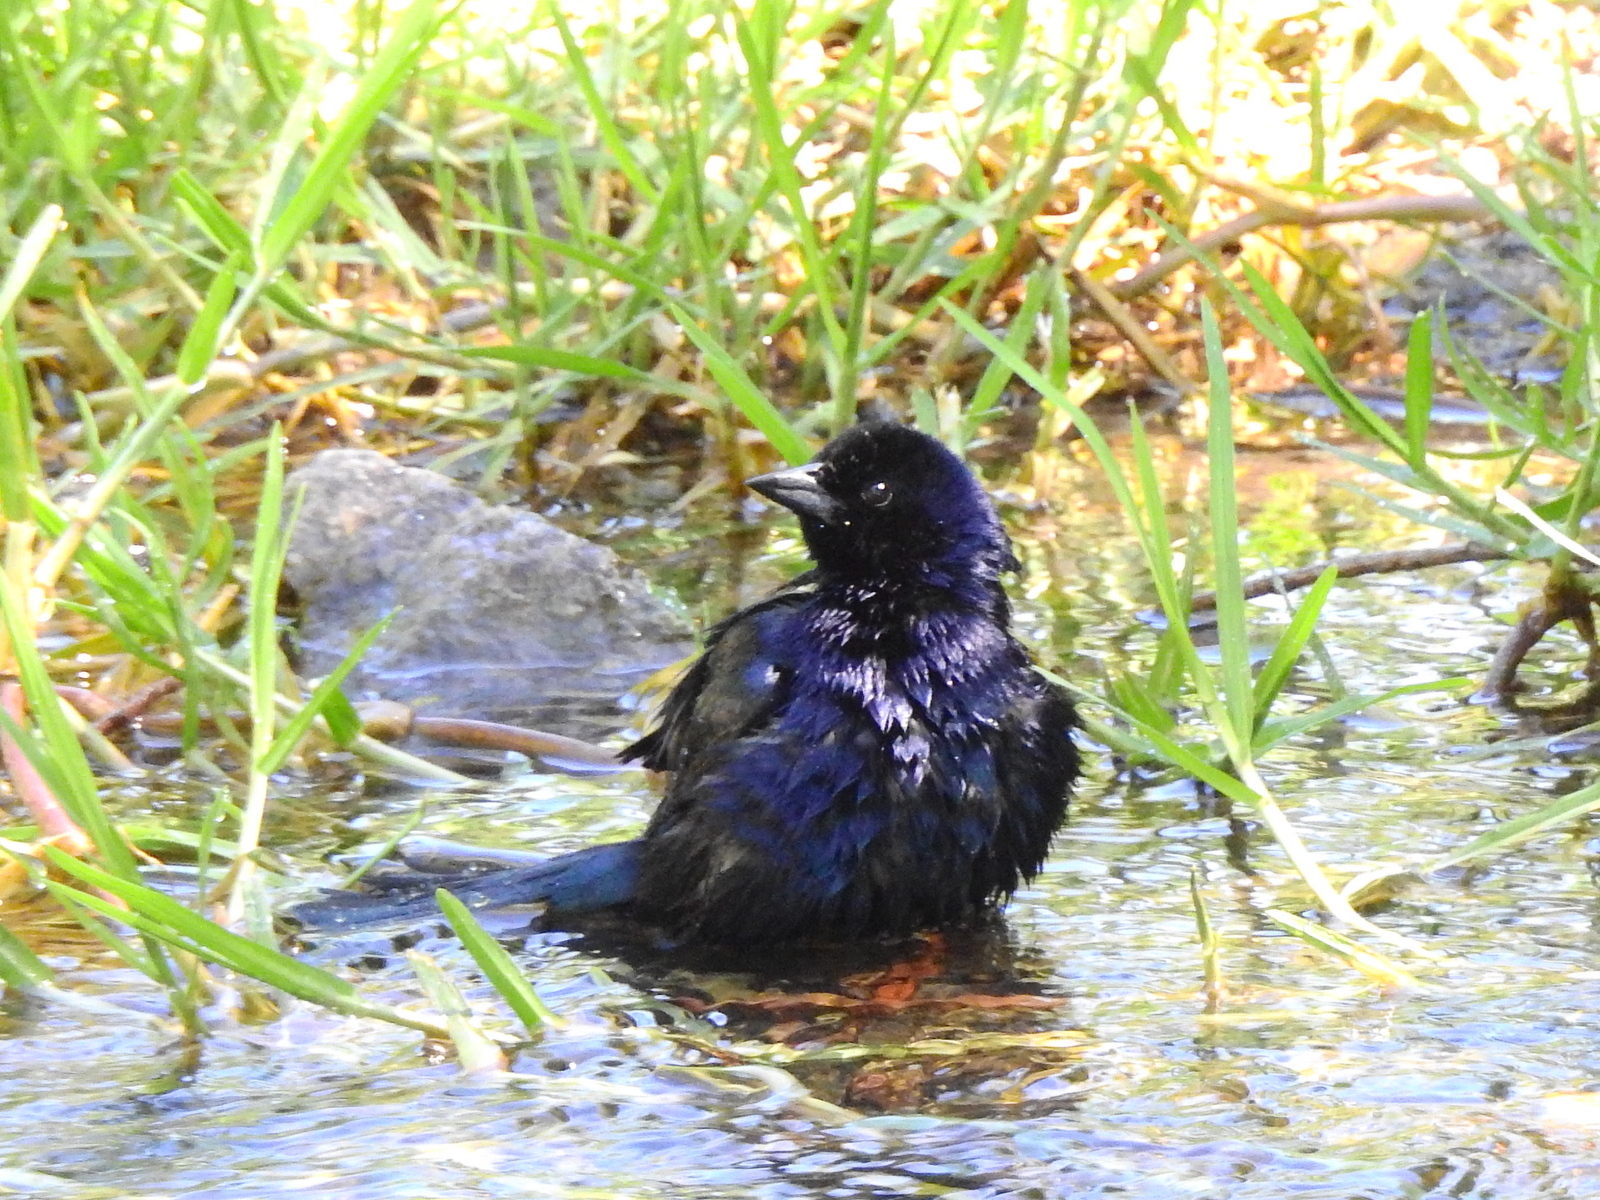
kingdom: Animalia
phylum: Chordata
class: Aves
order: Passeriformes
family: Icteridae
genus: Molothrus
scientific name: Molothrus bonariensis
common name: Shiny cowbird
